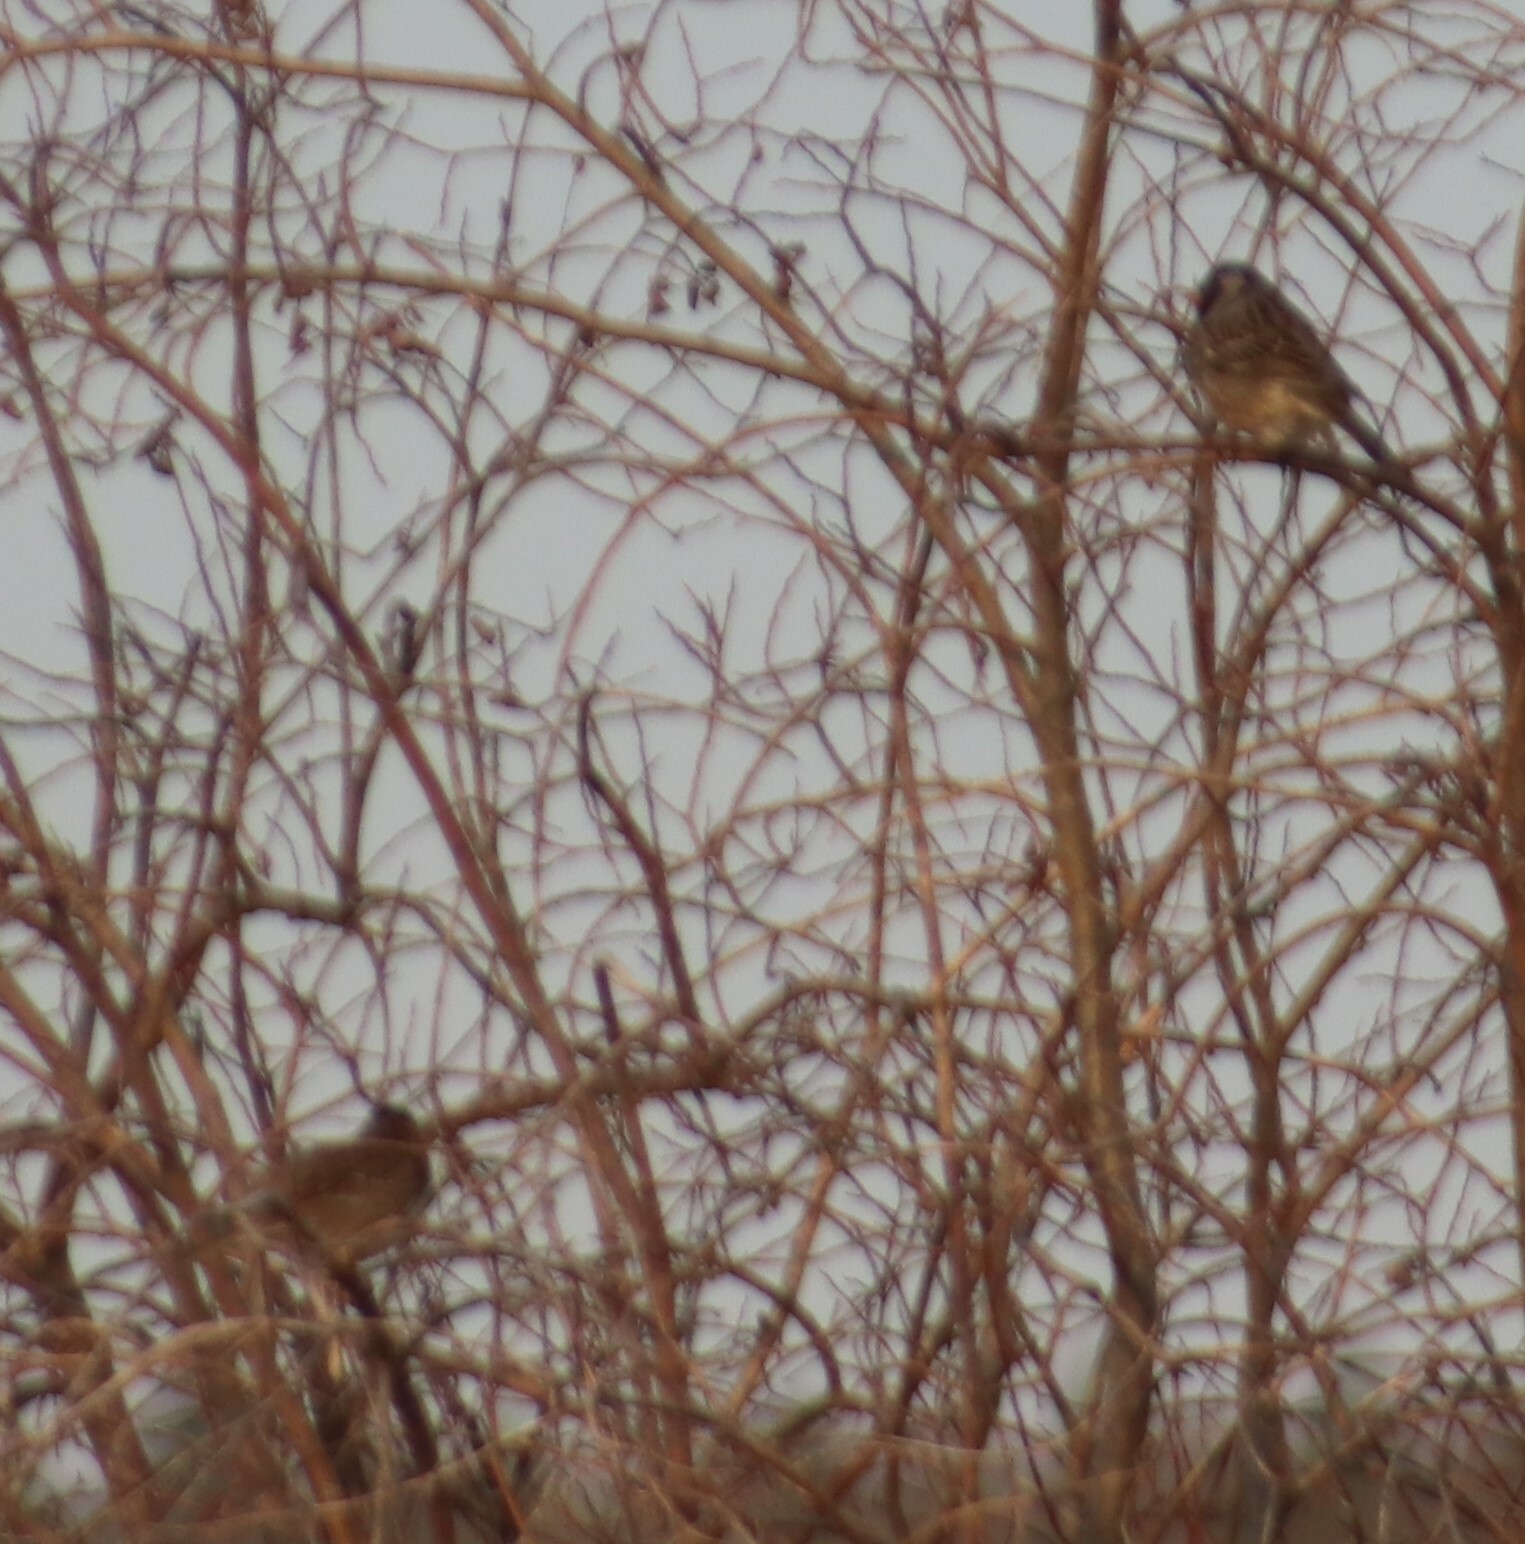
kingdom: Animalia
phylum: Chordata
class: Aves
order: Passeriformes
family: Passerellidae
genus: Zonotrichia
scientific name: Zonotrichia querula
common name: Harris's sparrow
